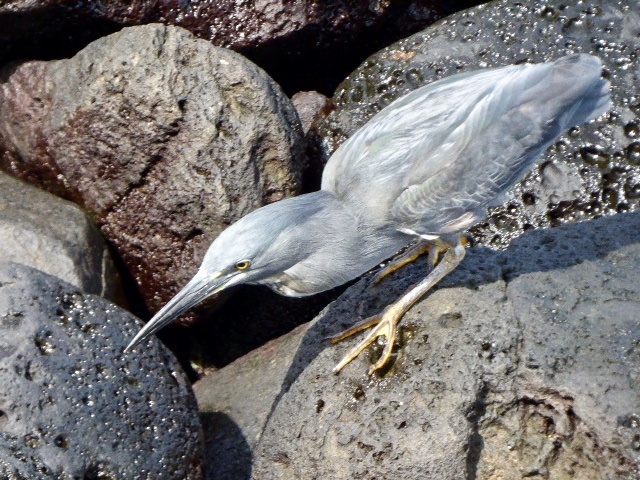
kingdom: Animalia
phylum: Chordata
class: Aves
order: Pelecaniformes
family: Ardeidae
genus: Butorides
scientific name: Butorides striata
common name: Striated heron
